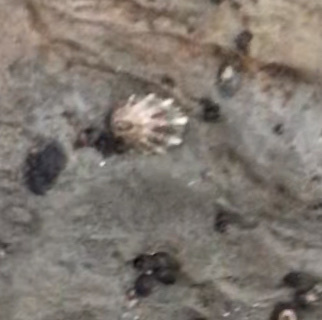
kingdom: Animalia
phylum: Mollusca
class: Gastropoda
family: Lottiidae
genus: Lottia
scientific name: Lottia scabra
